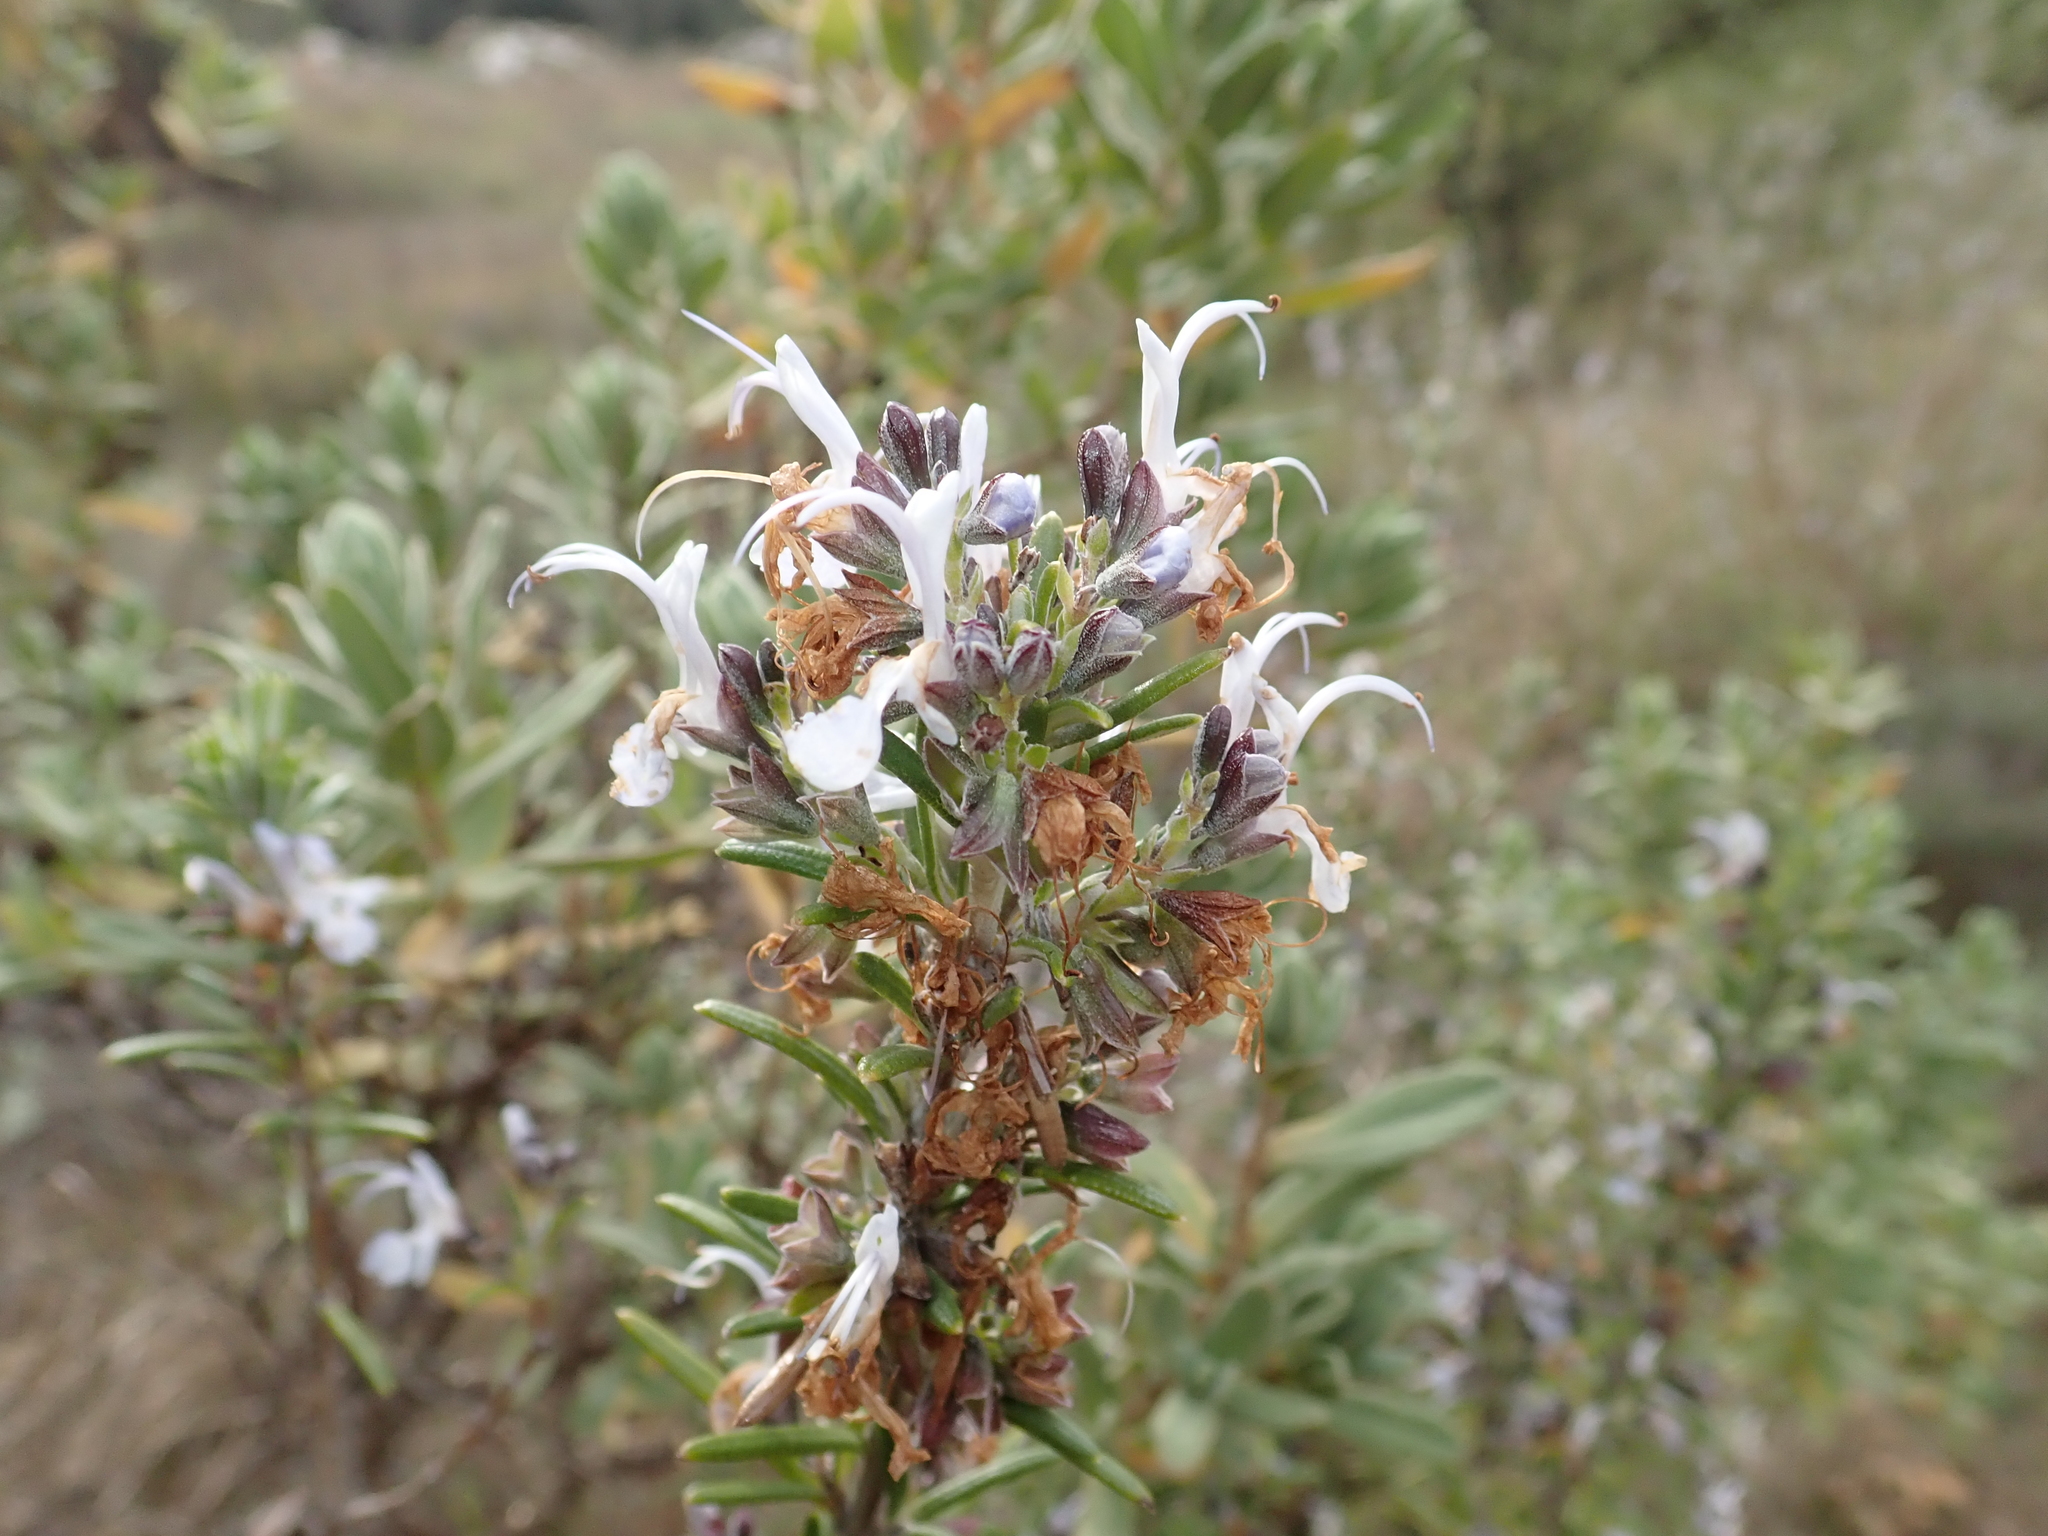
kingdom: Plantae
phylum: Tracheophyta
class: Magnoliopsida
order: Lamiales
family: Lamiaceae
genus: Salvia
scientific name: Salvia rosmarinus
